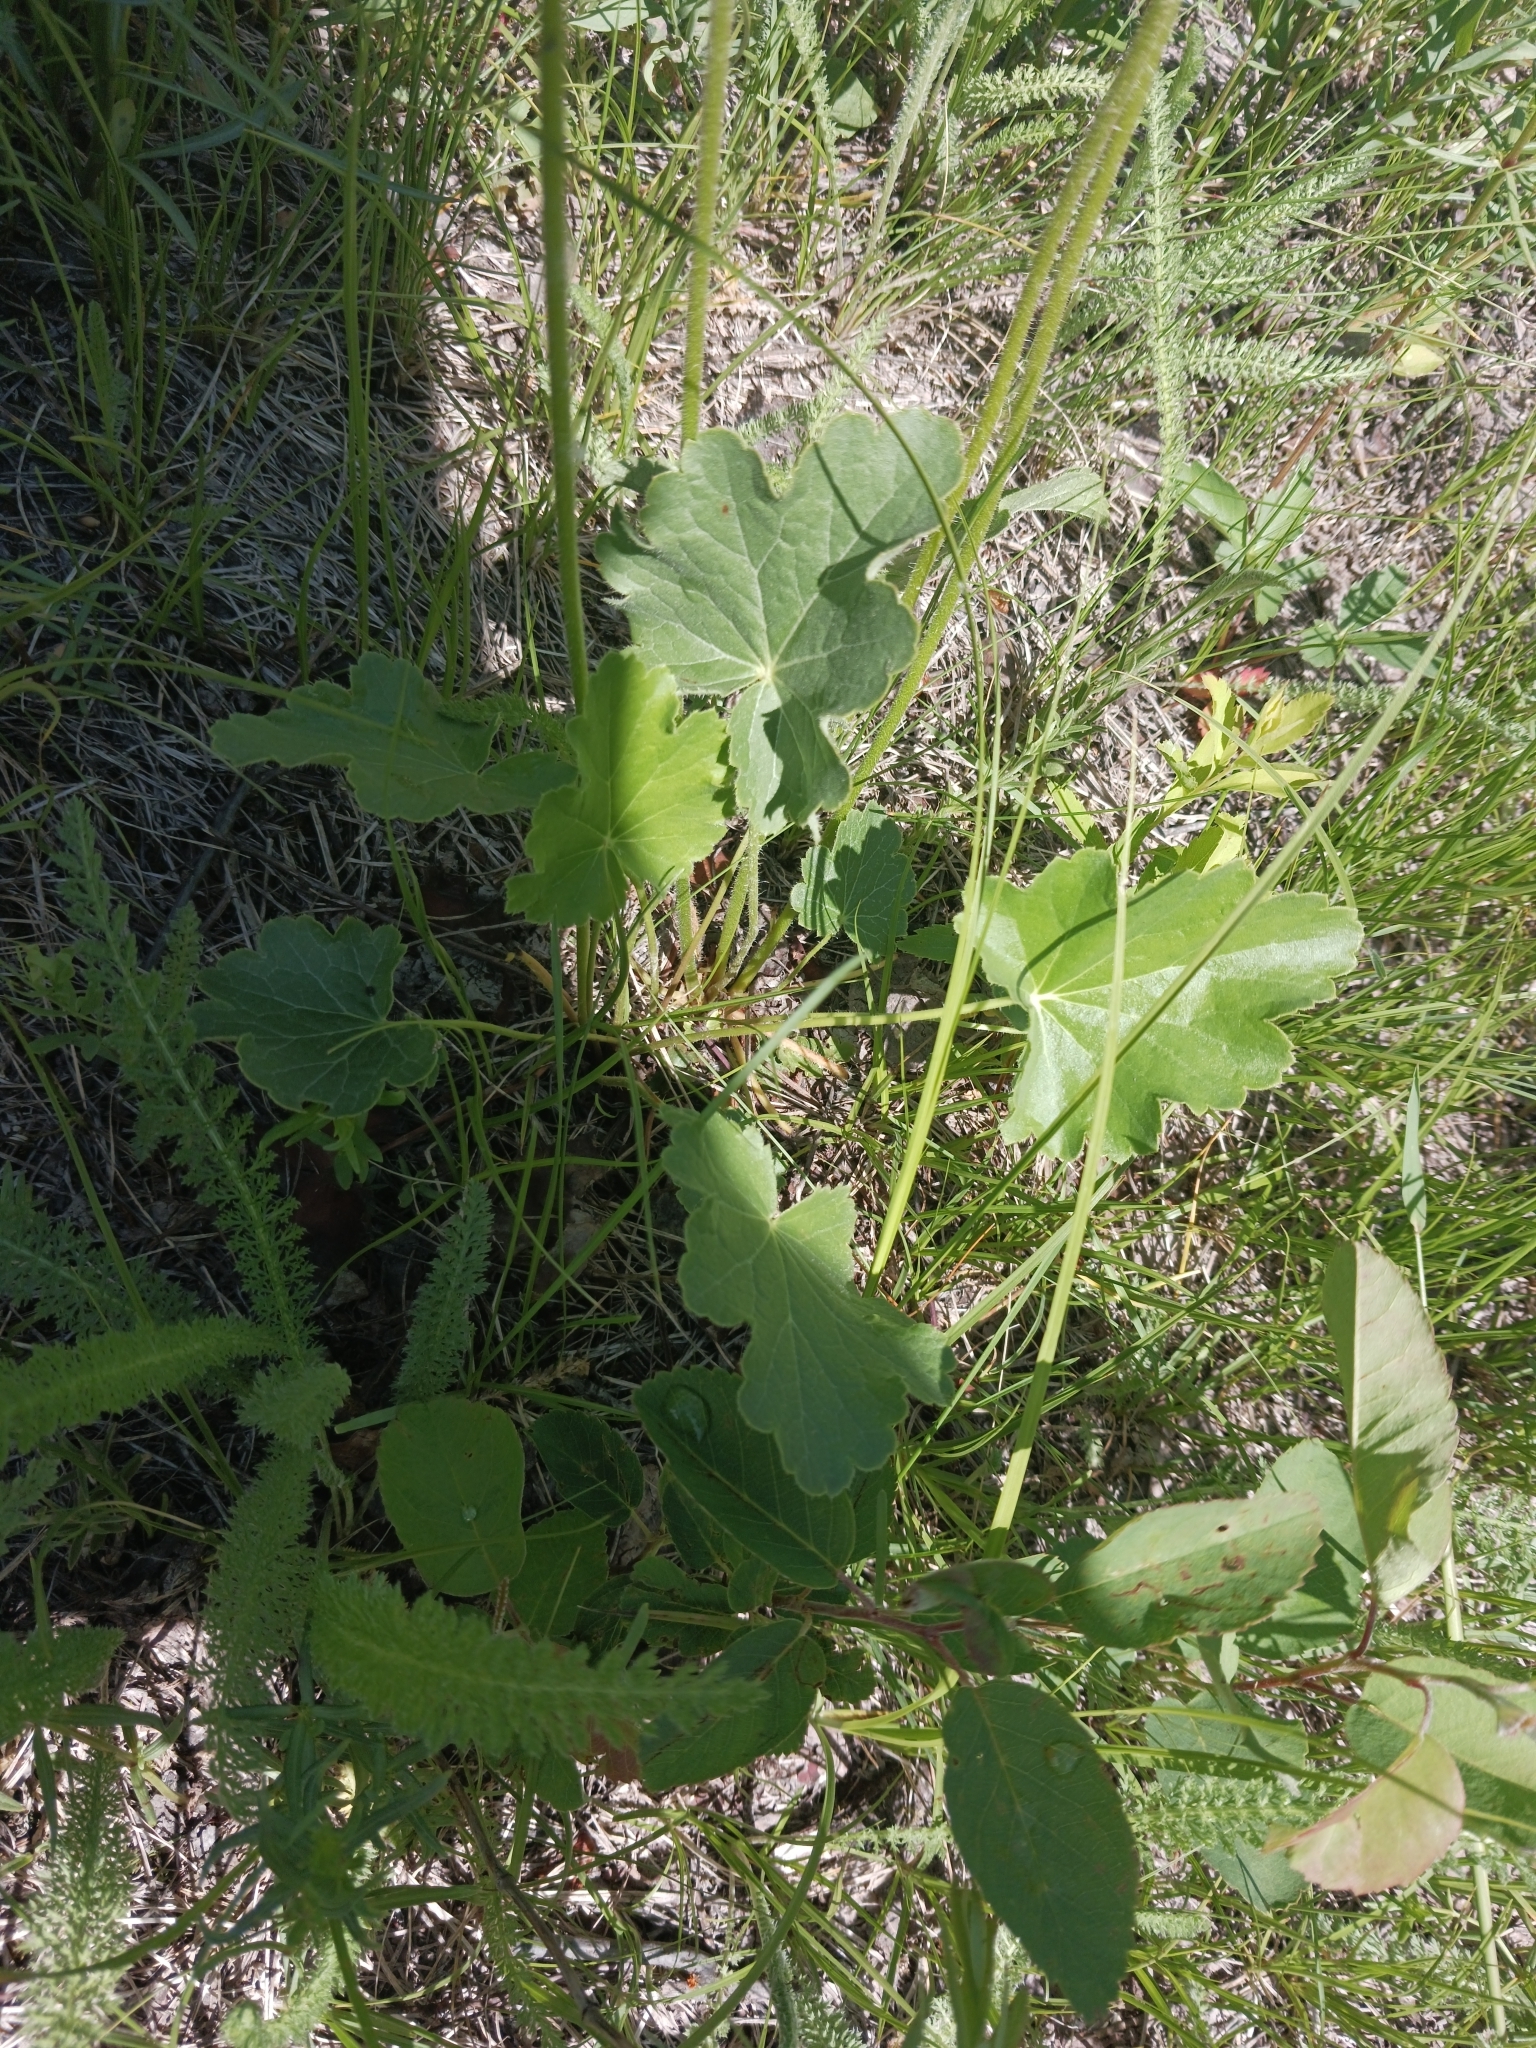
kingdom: Plantae
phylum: Tracheophyta
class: Magnoliopsida
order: Saxifragales
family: Saxifragaceae
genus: Heuchera
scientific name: Heuchera richardsonii
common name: Richardson's alumroot
